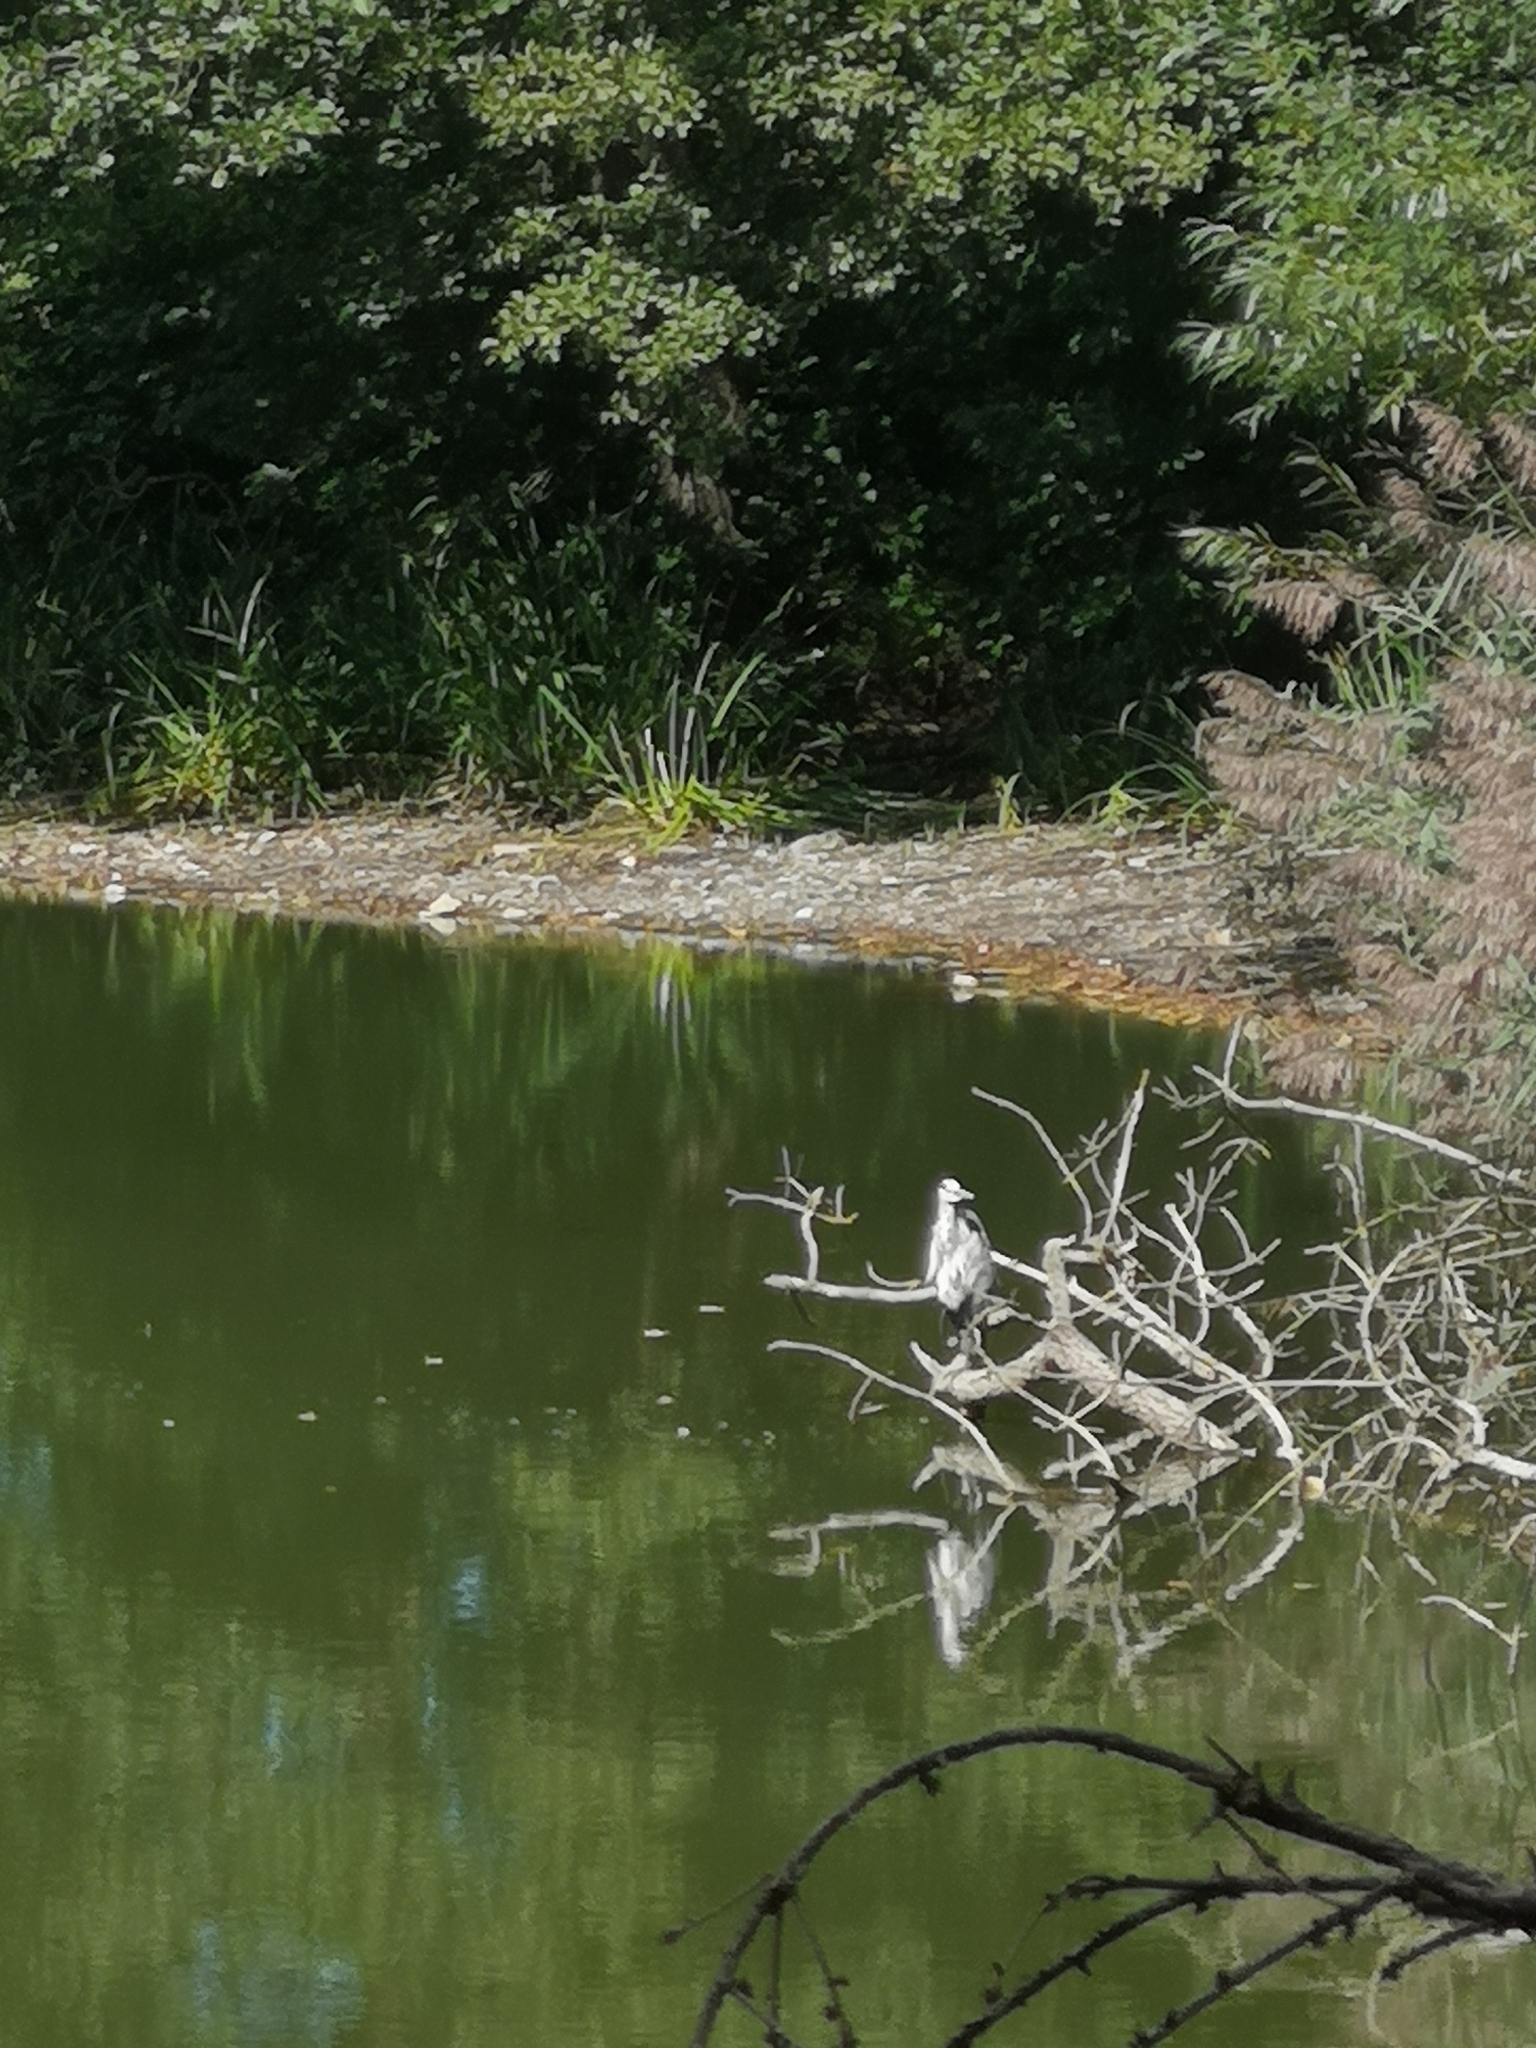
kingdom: Animalia
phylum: Chordata
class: Aves
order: Pelecaniformes
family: Ardeidae
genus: Ardea
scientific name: Ardea cinerea
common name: Grey heron
